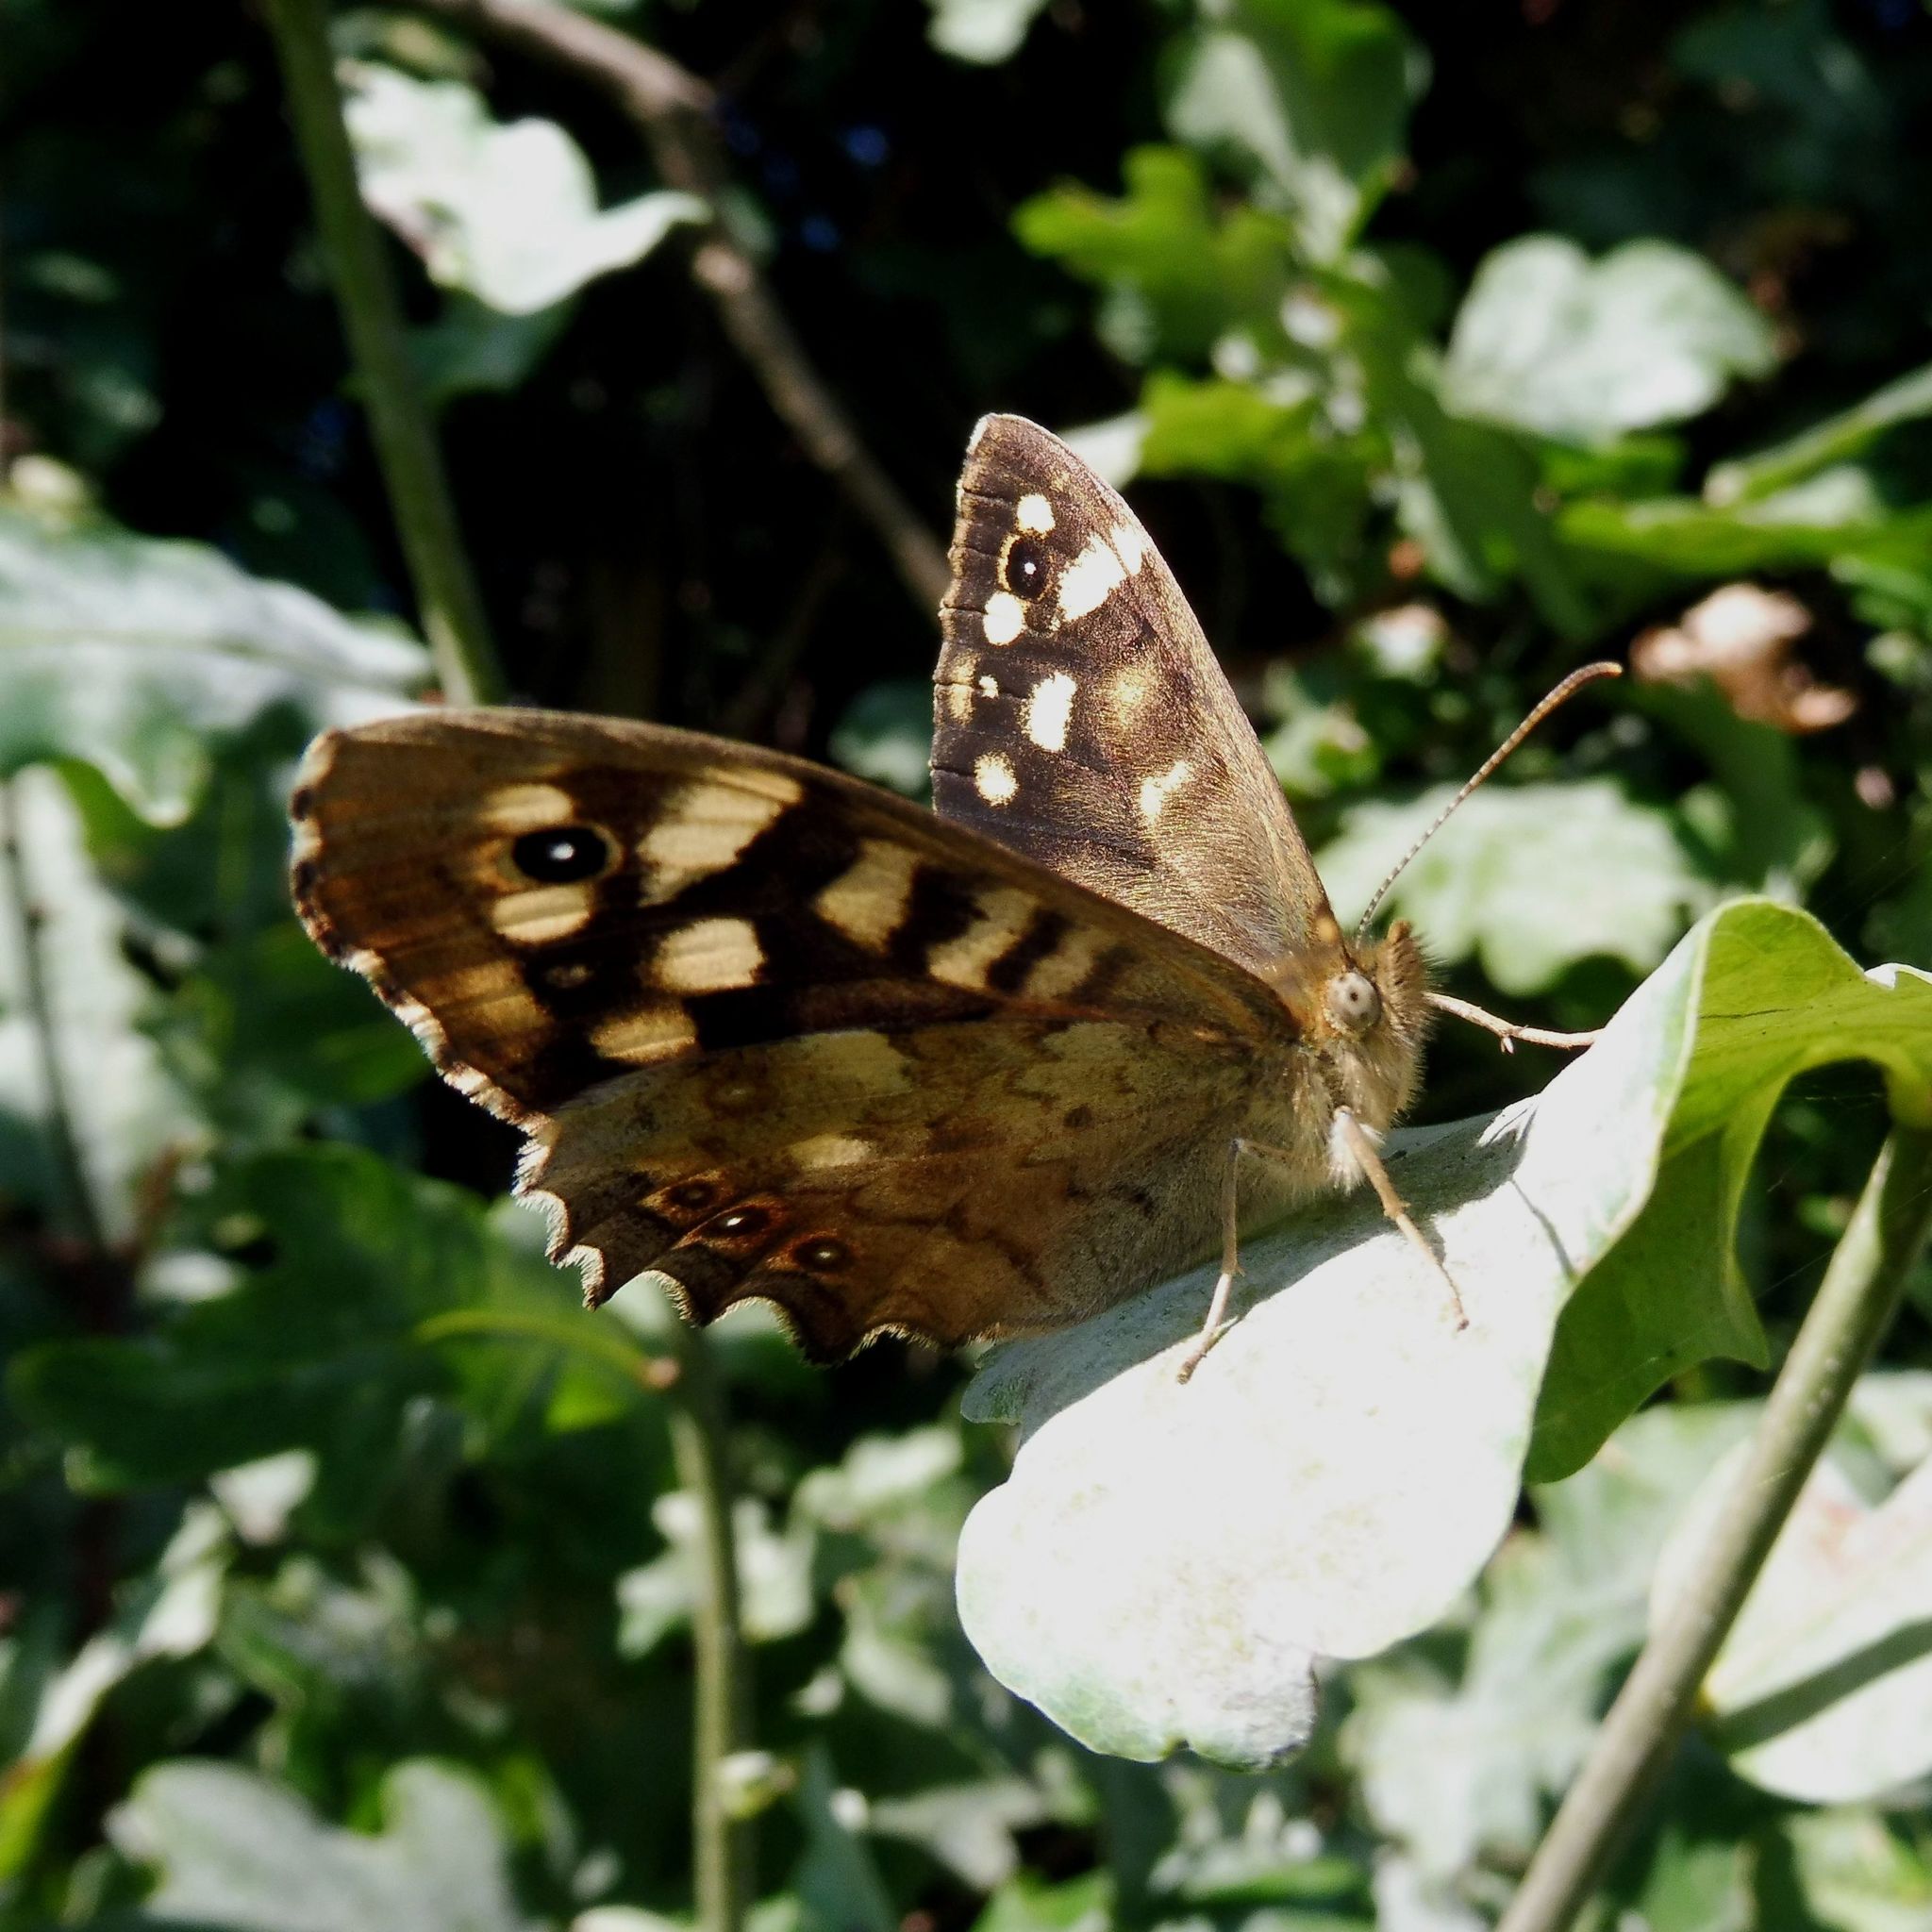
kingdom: Animalia
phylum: Arthropoda
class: Insecta
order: Lepidoptera
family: Nymphalidae
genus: Pararge
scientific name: Pararge aegeria
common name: Speckled wood
